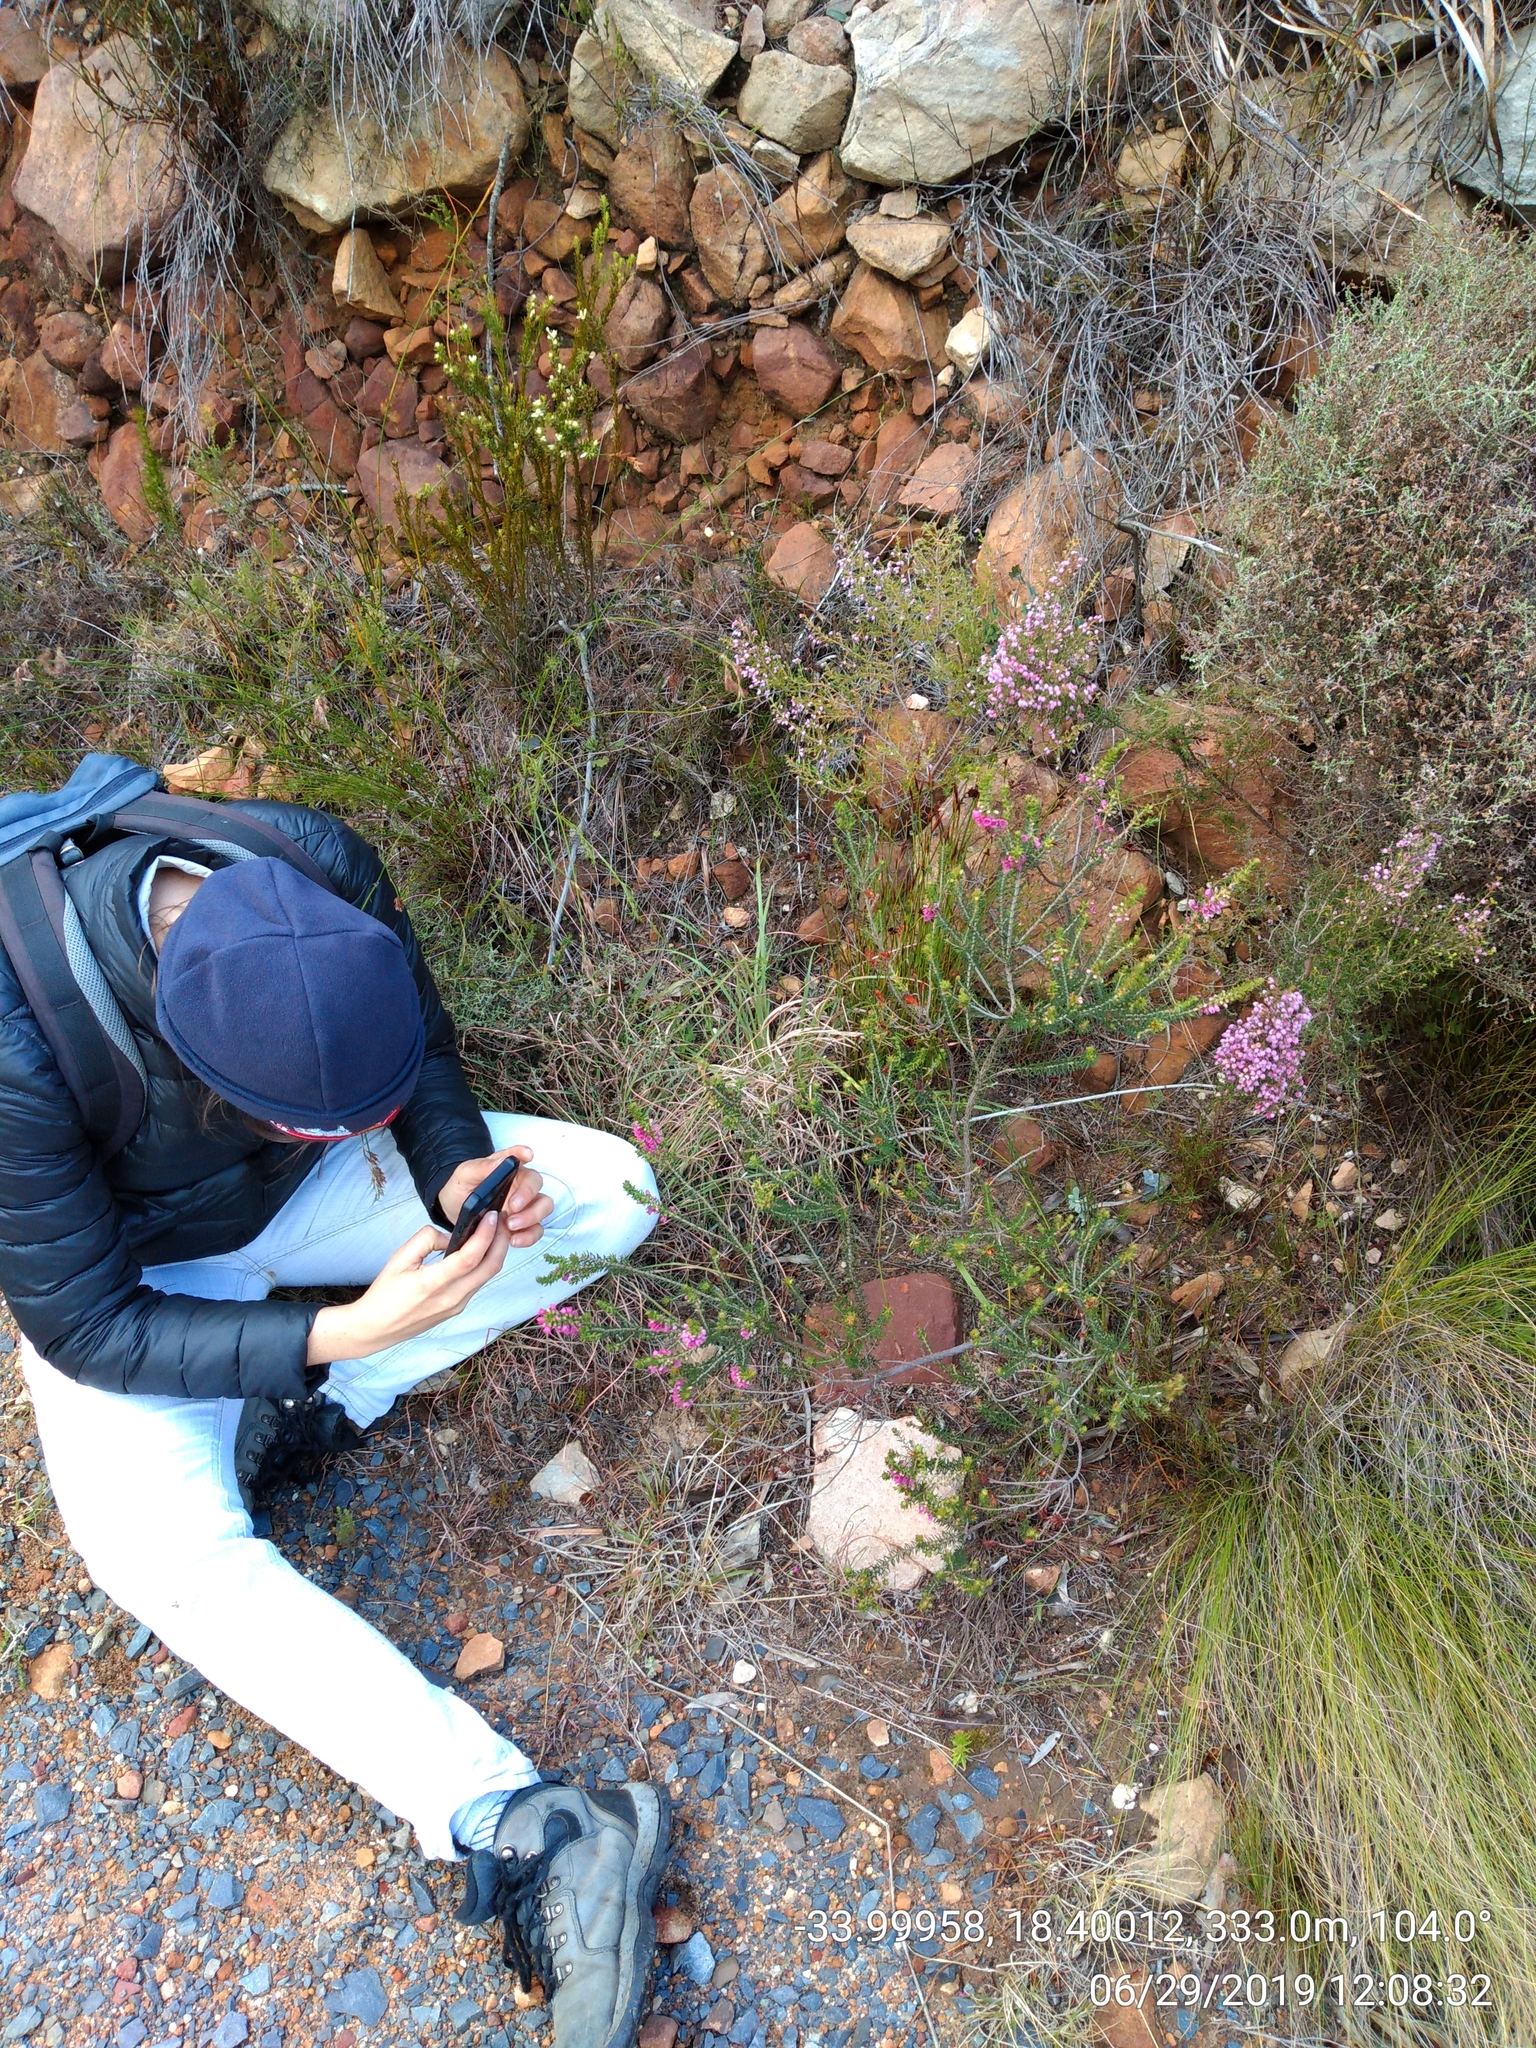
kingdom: Plantae
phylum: Tracheophyta
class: Magnoliopsida
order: Ericales
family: Ericaceae
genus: Erica
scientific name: Erica abietina
